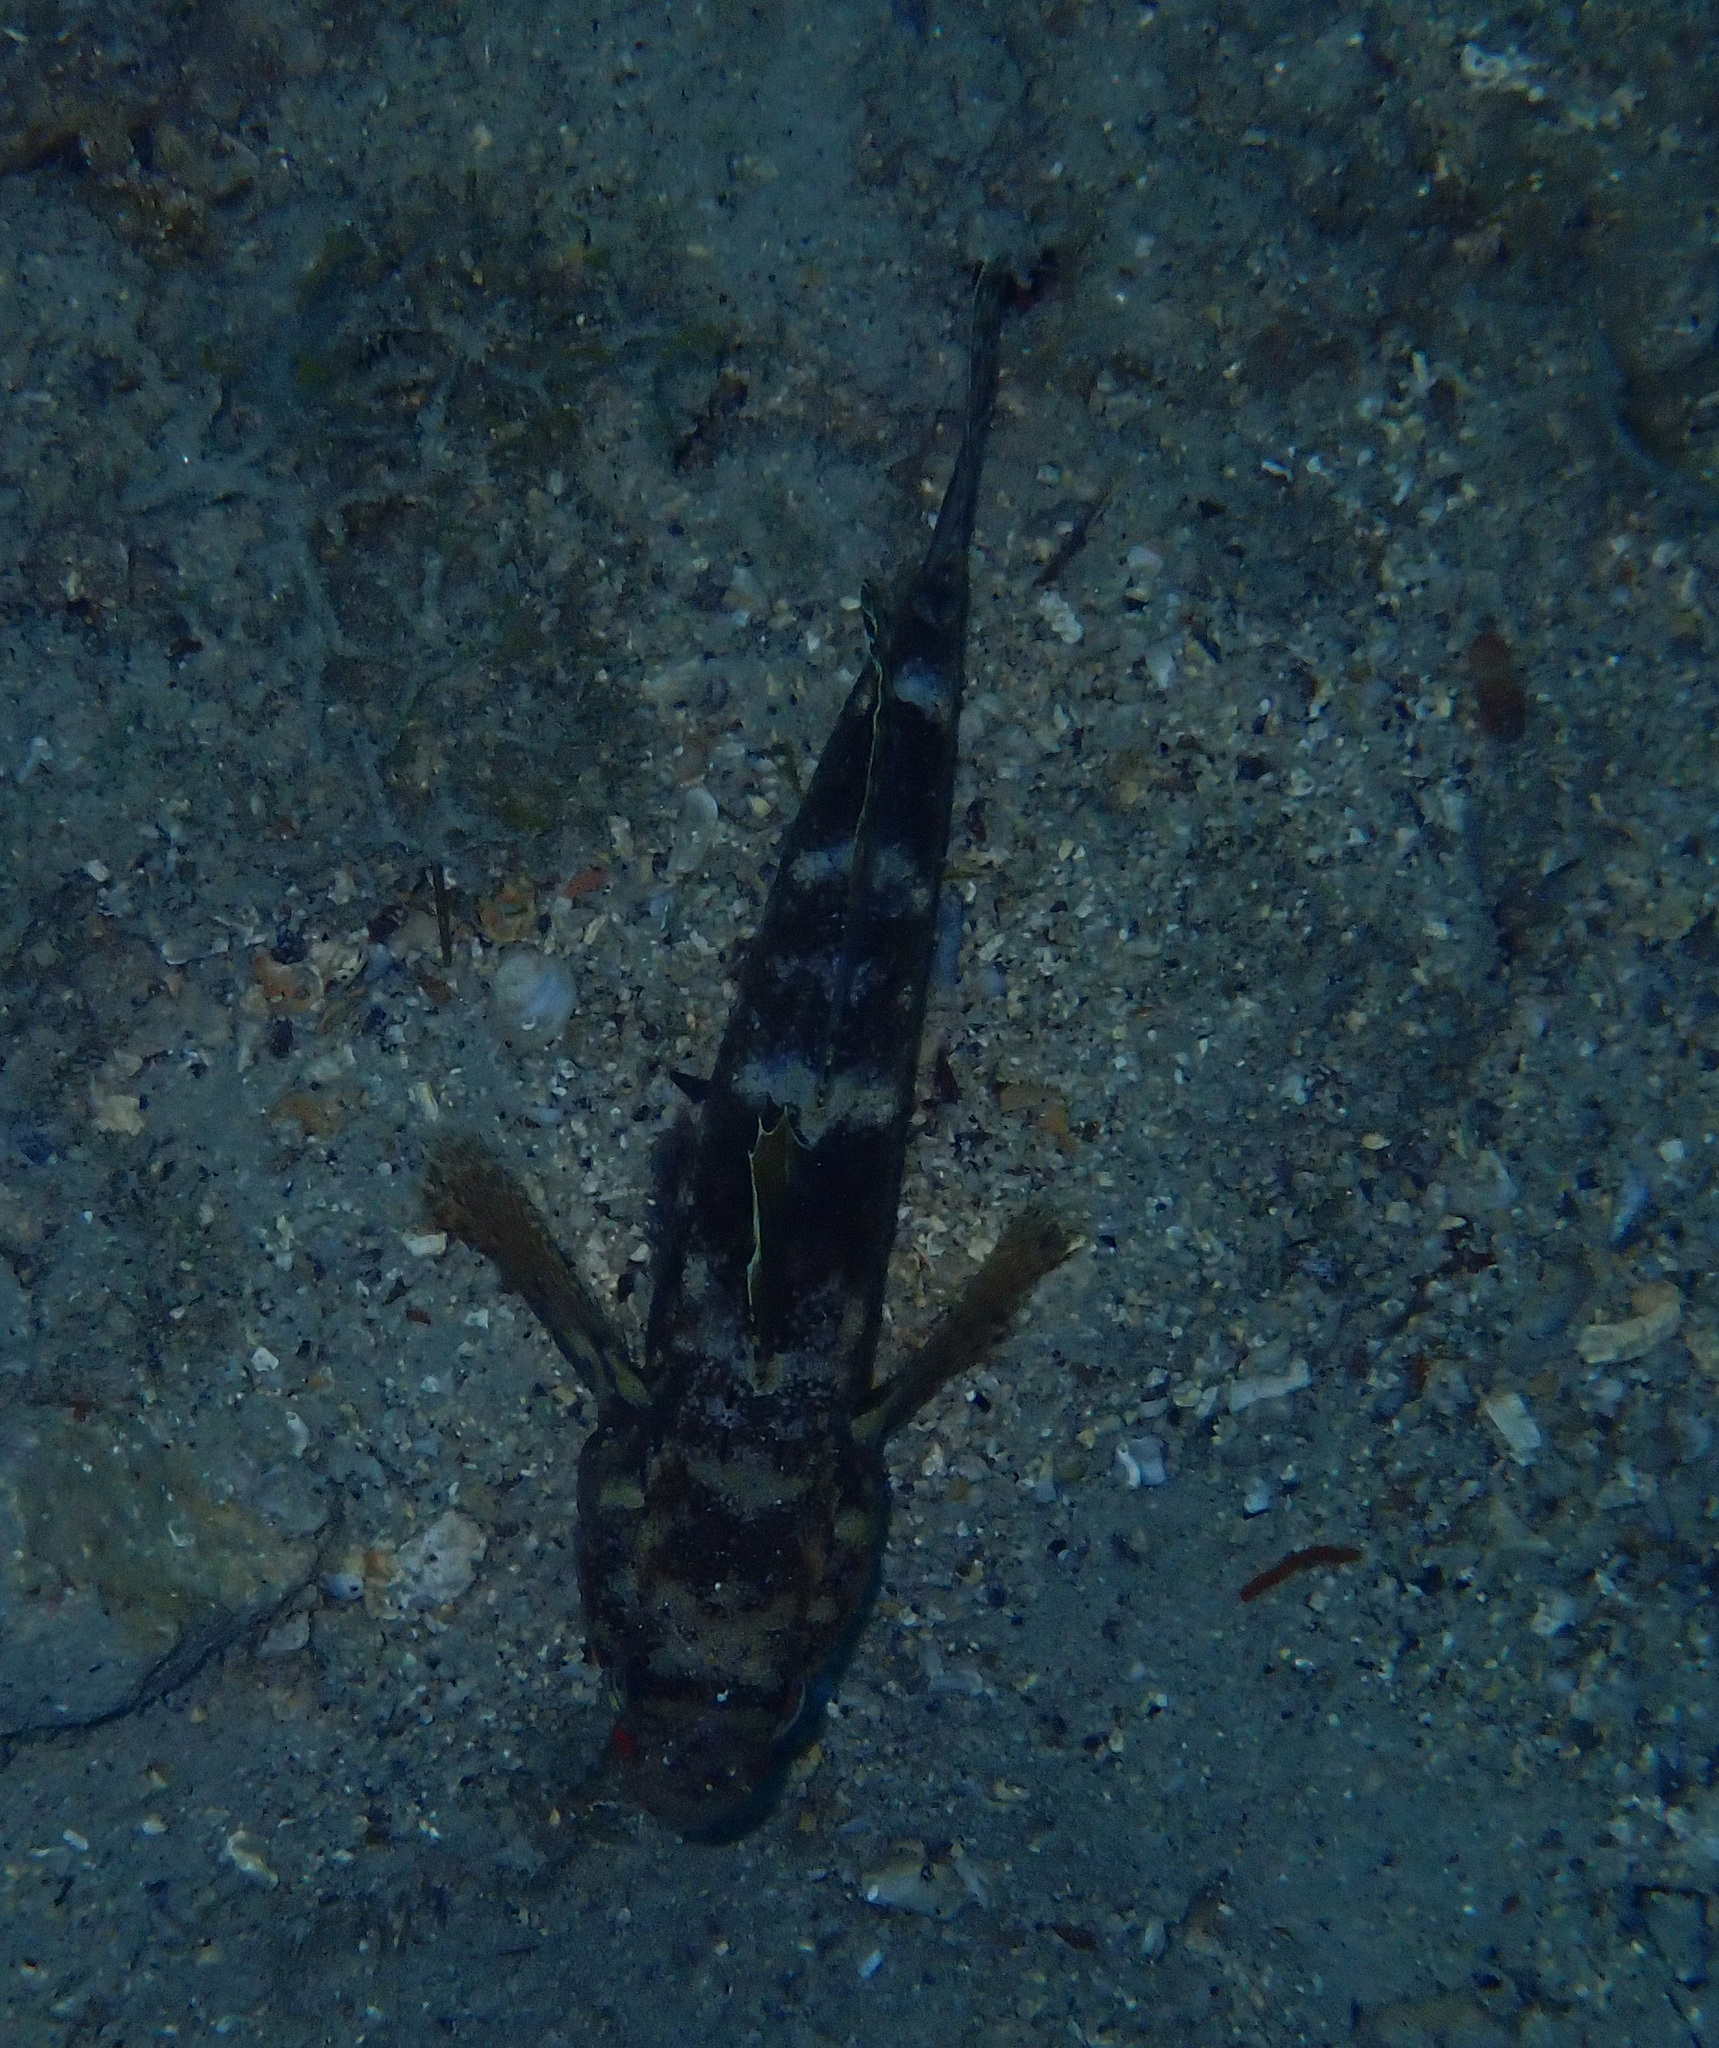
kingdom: Animalia
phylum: Chordata
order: Perciformes
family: Gobiidae
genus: Gobius
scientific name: Gobius cruentatus
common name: Red-mouthed goby
